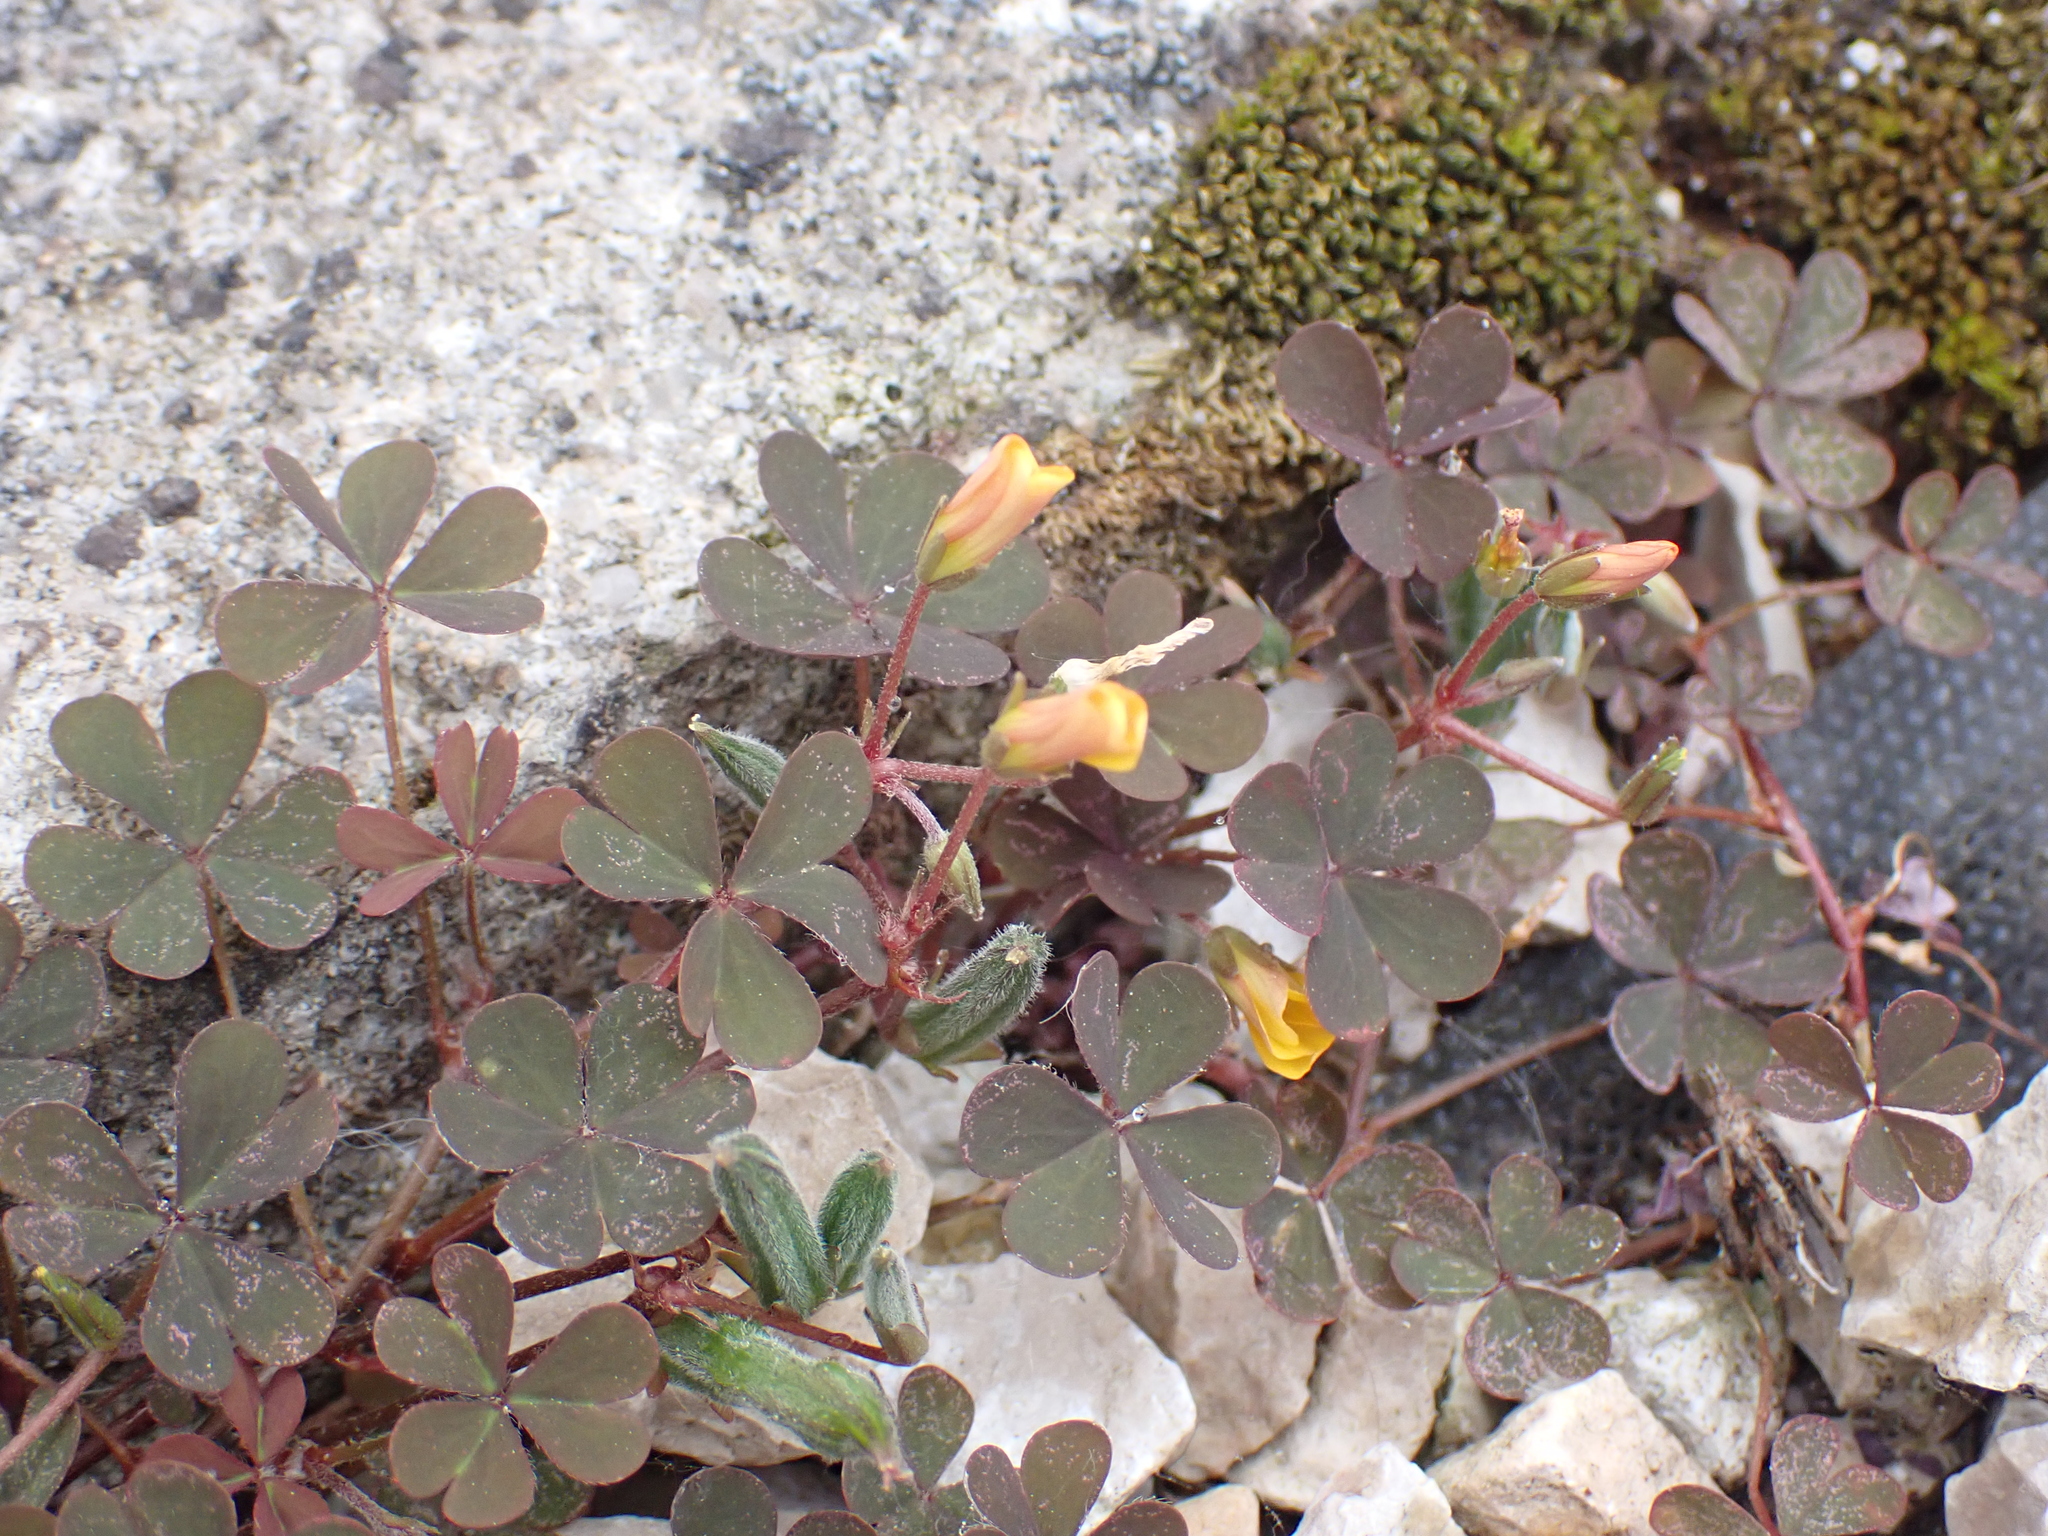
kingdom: Plantae
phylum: Tracheophyta
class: Magnoliopsida
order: Oxalidales
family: Oxalidaceae
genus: Oxalis
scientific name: Oxalis corniculata
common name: Procumbent yellow-sorrel
